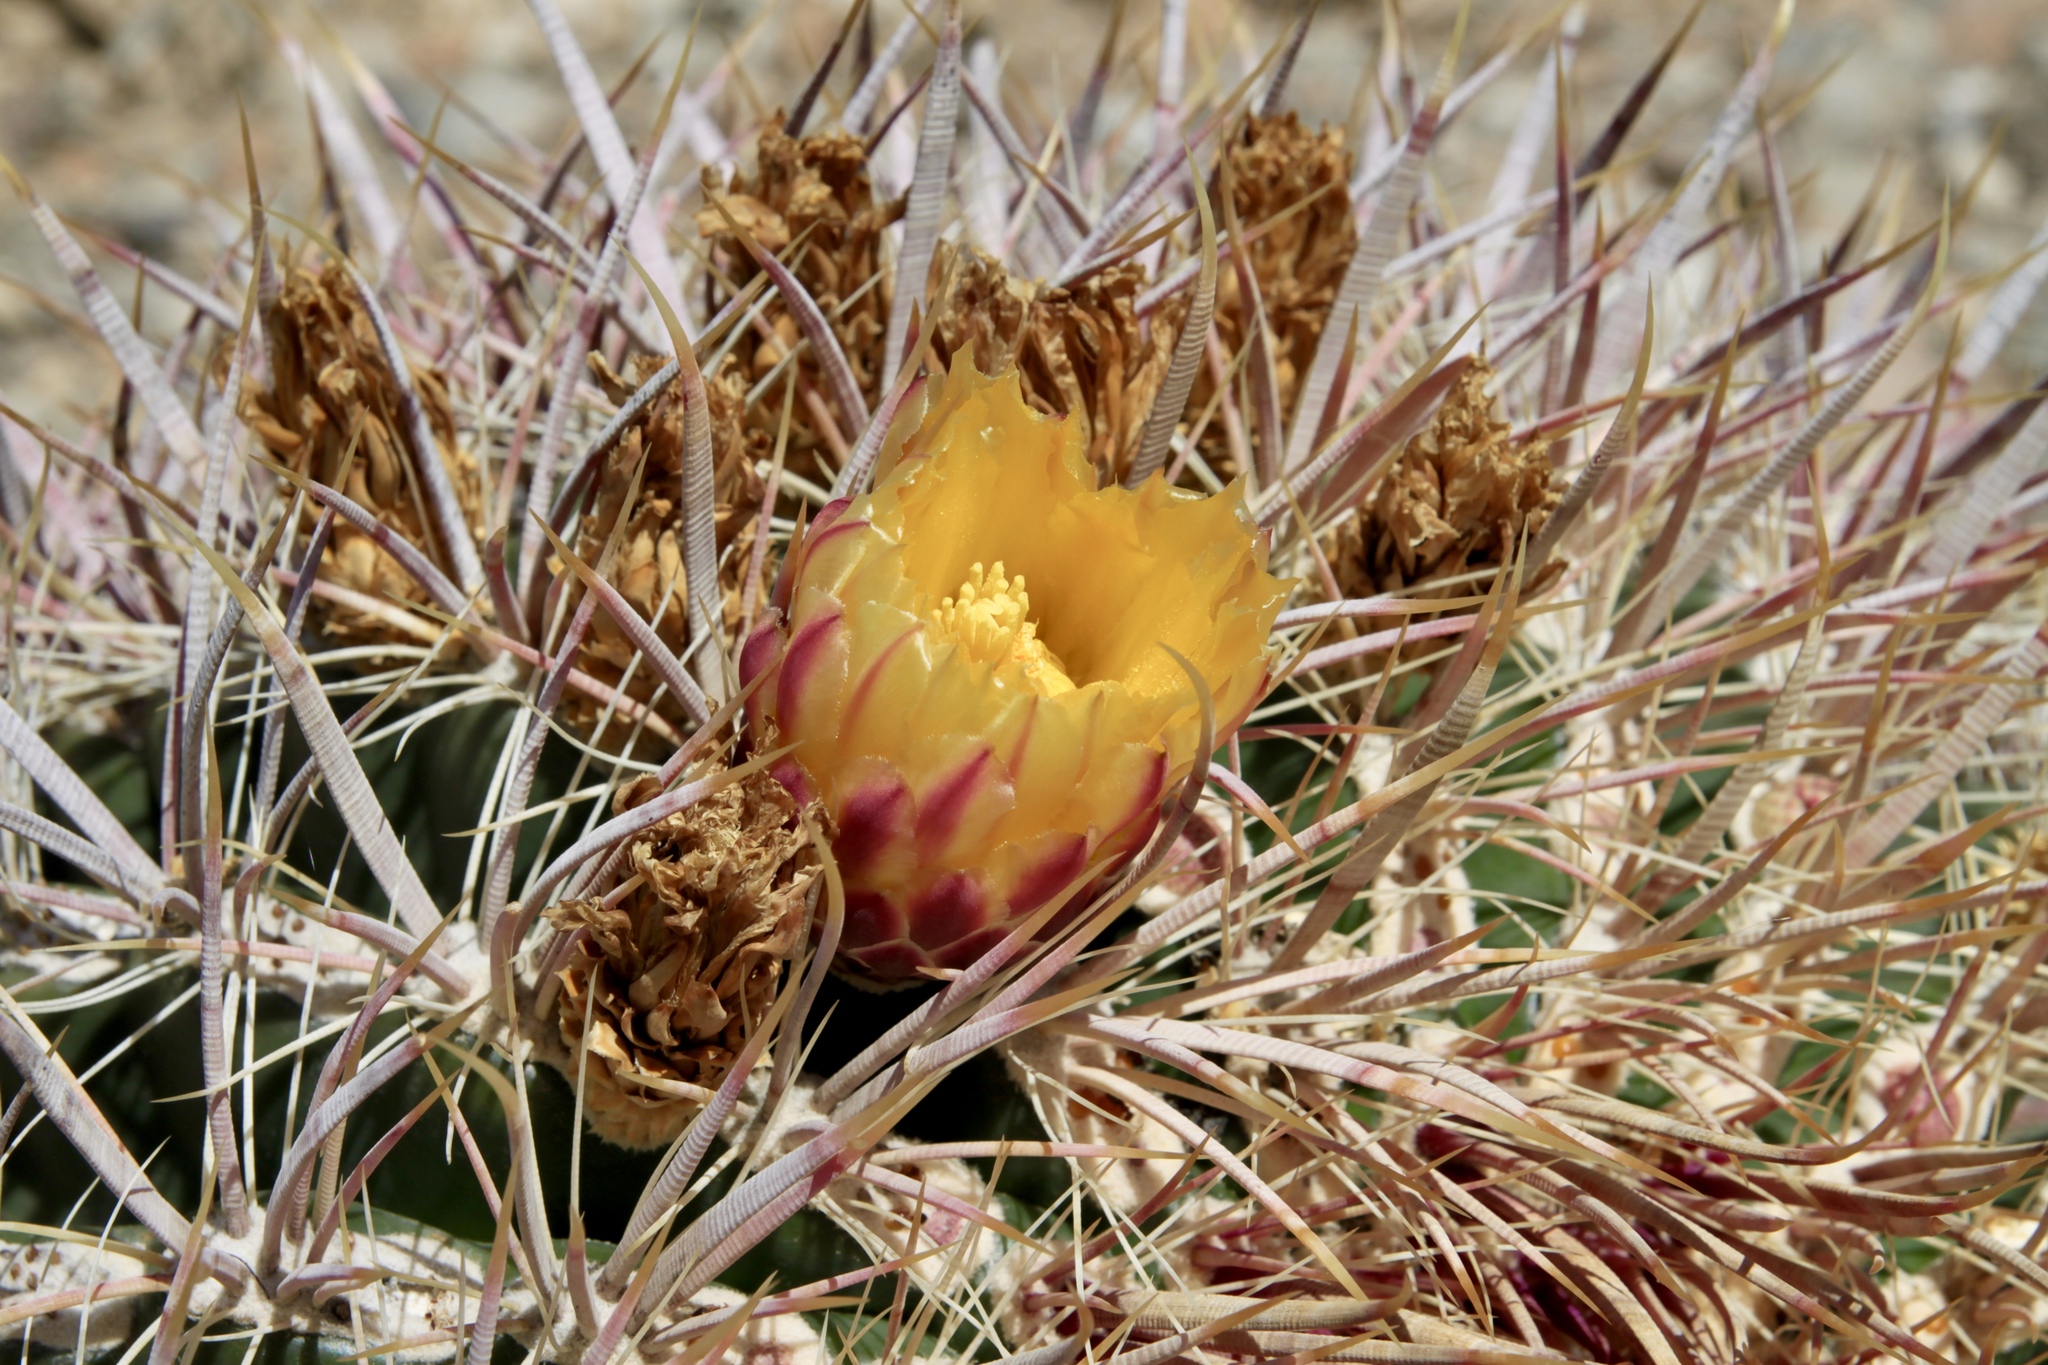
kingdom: Plantae
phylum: Tracheophyta
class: Magnoliopsida
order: Caryophyllales
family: Cactaceae
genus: Ferocactus
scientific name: Ferocactus cylindraceus
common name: California barrel cactus
